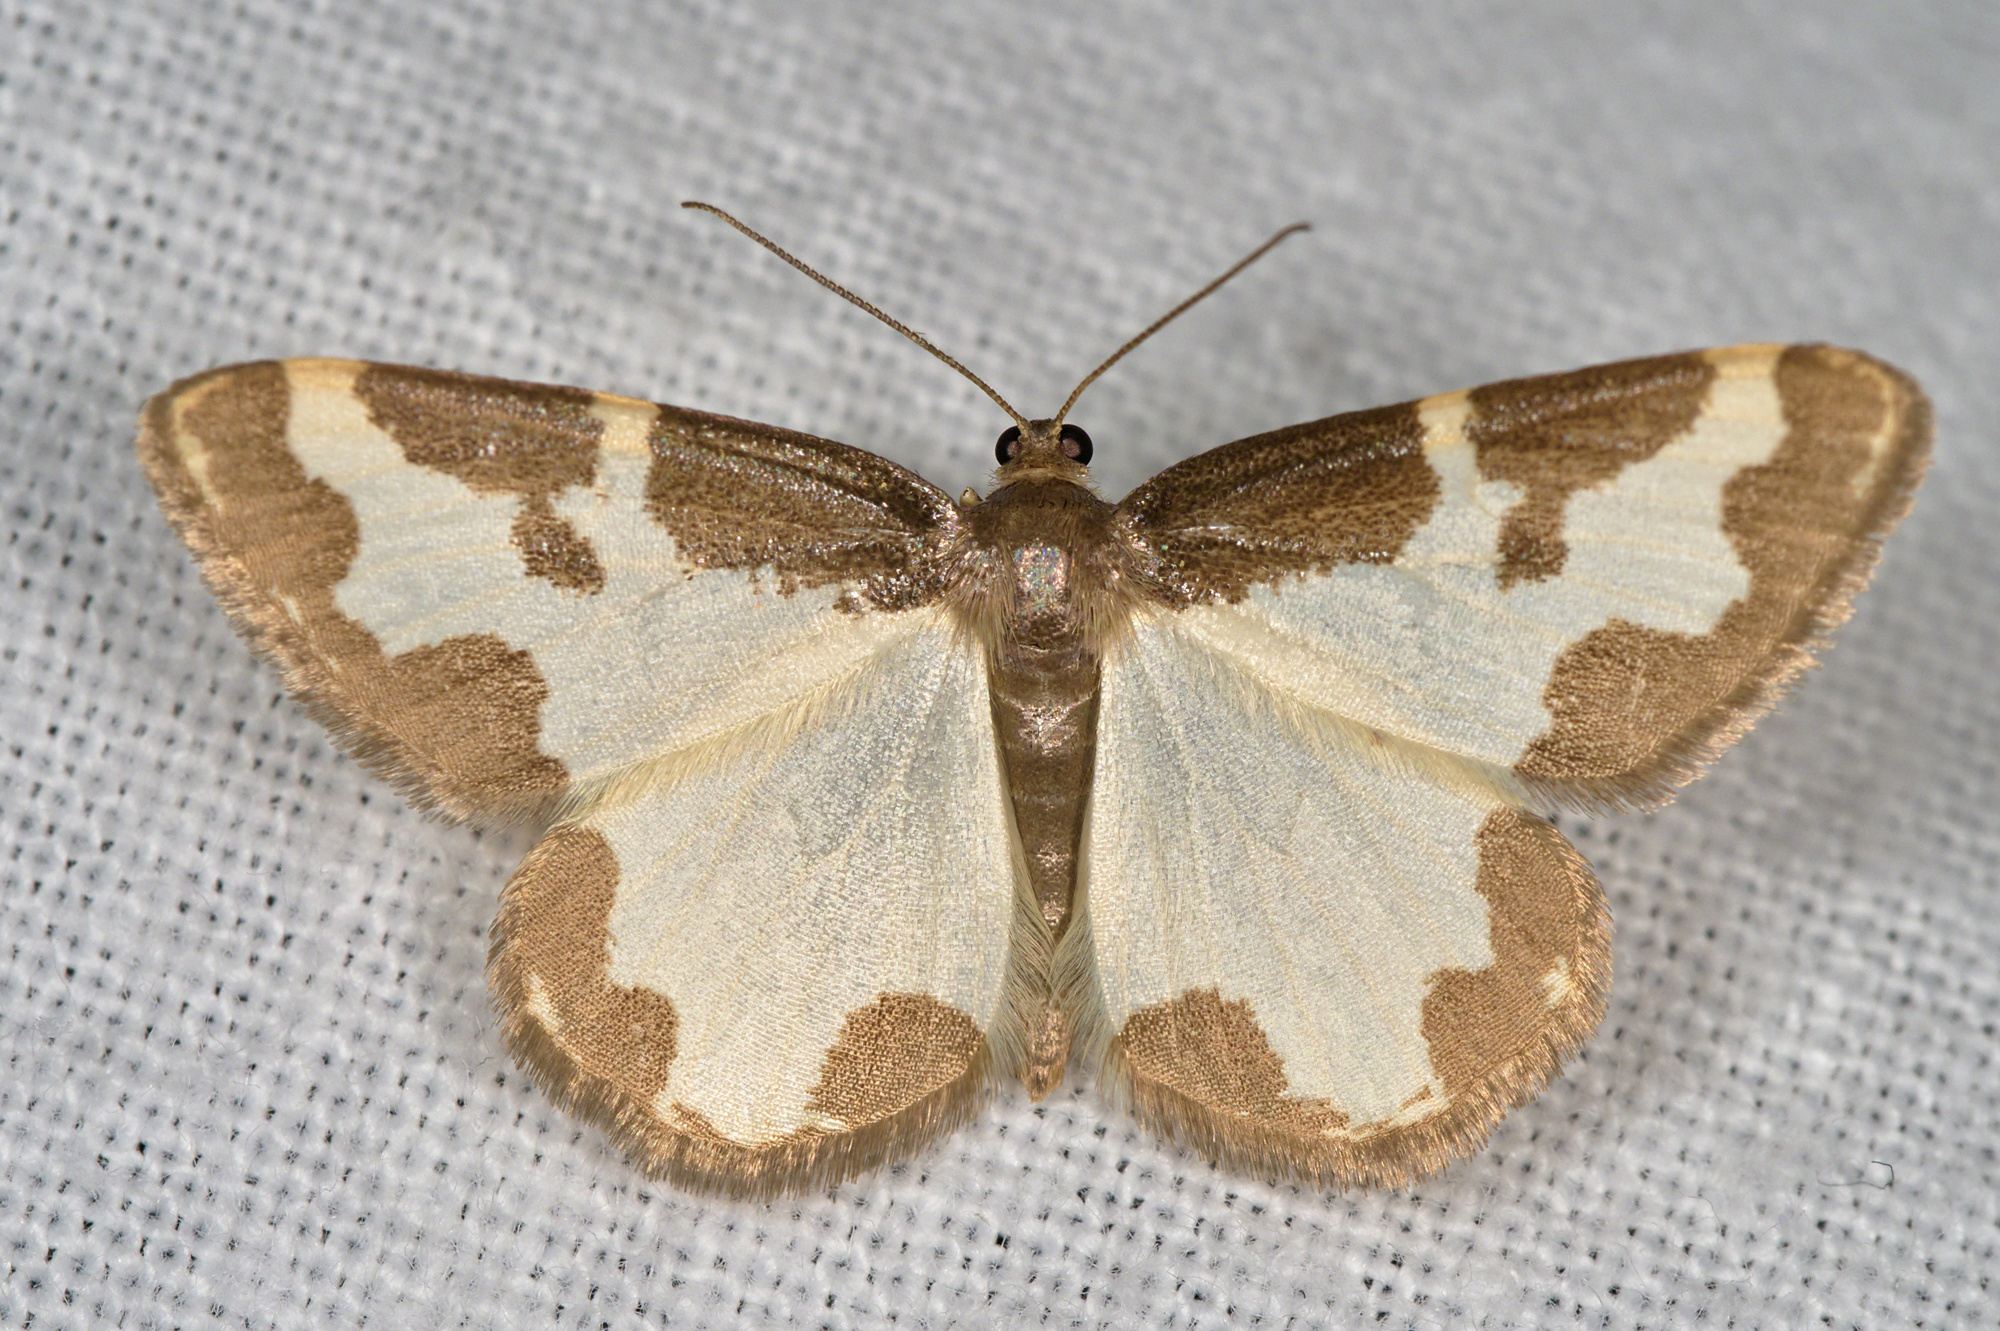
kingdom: Animalia
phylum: Arthropoda
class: Insecta
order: Lepidoptera
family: Geometridae
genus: Lomaspilis
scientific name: Lomaspilis marginata
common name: Clouded border
